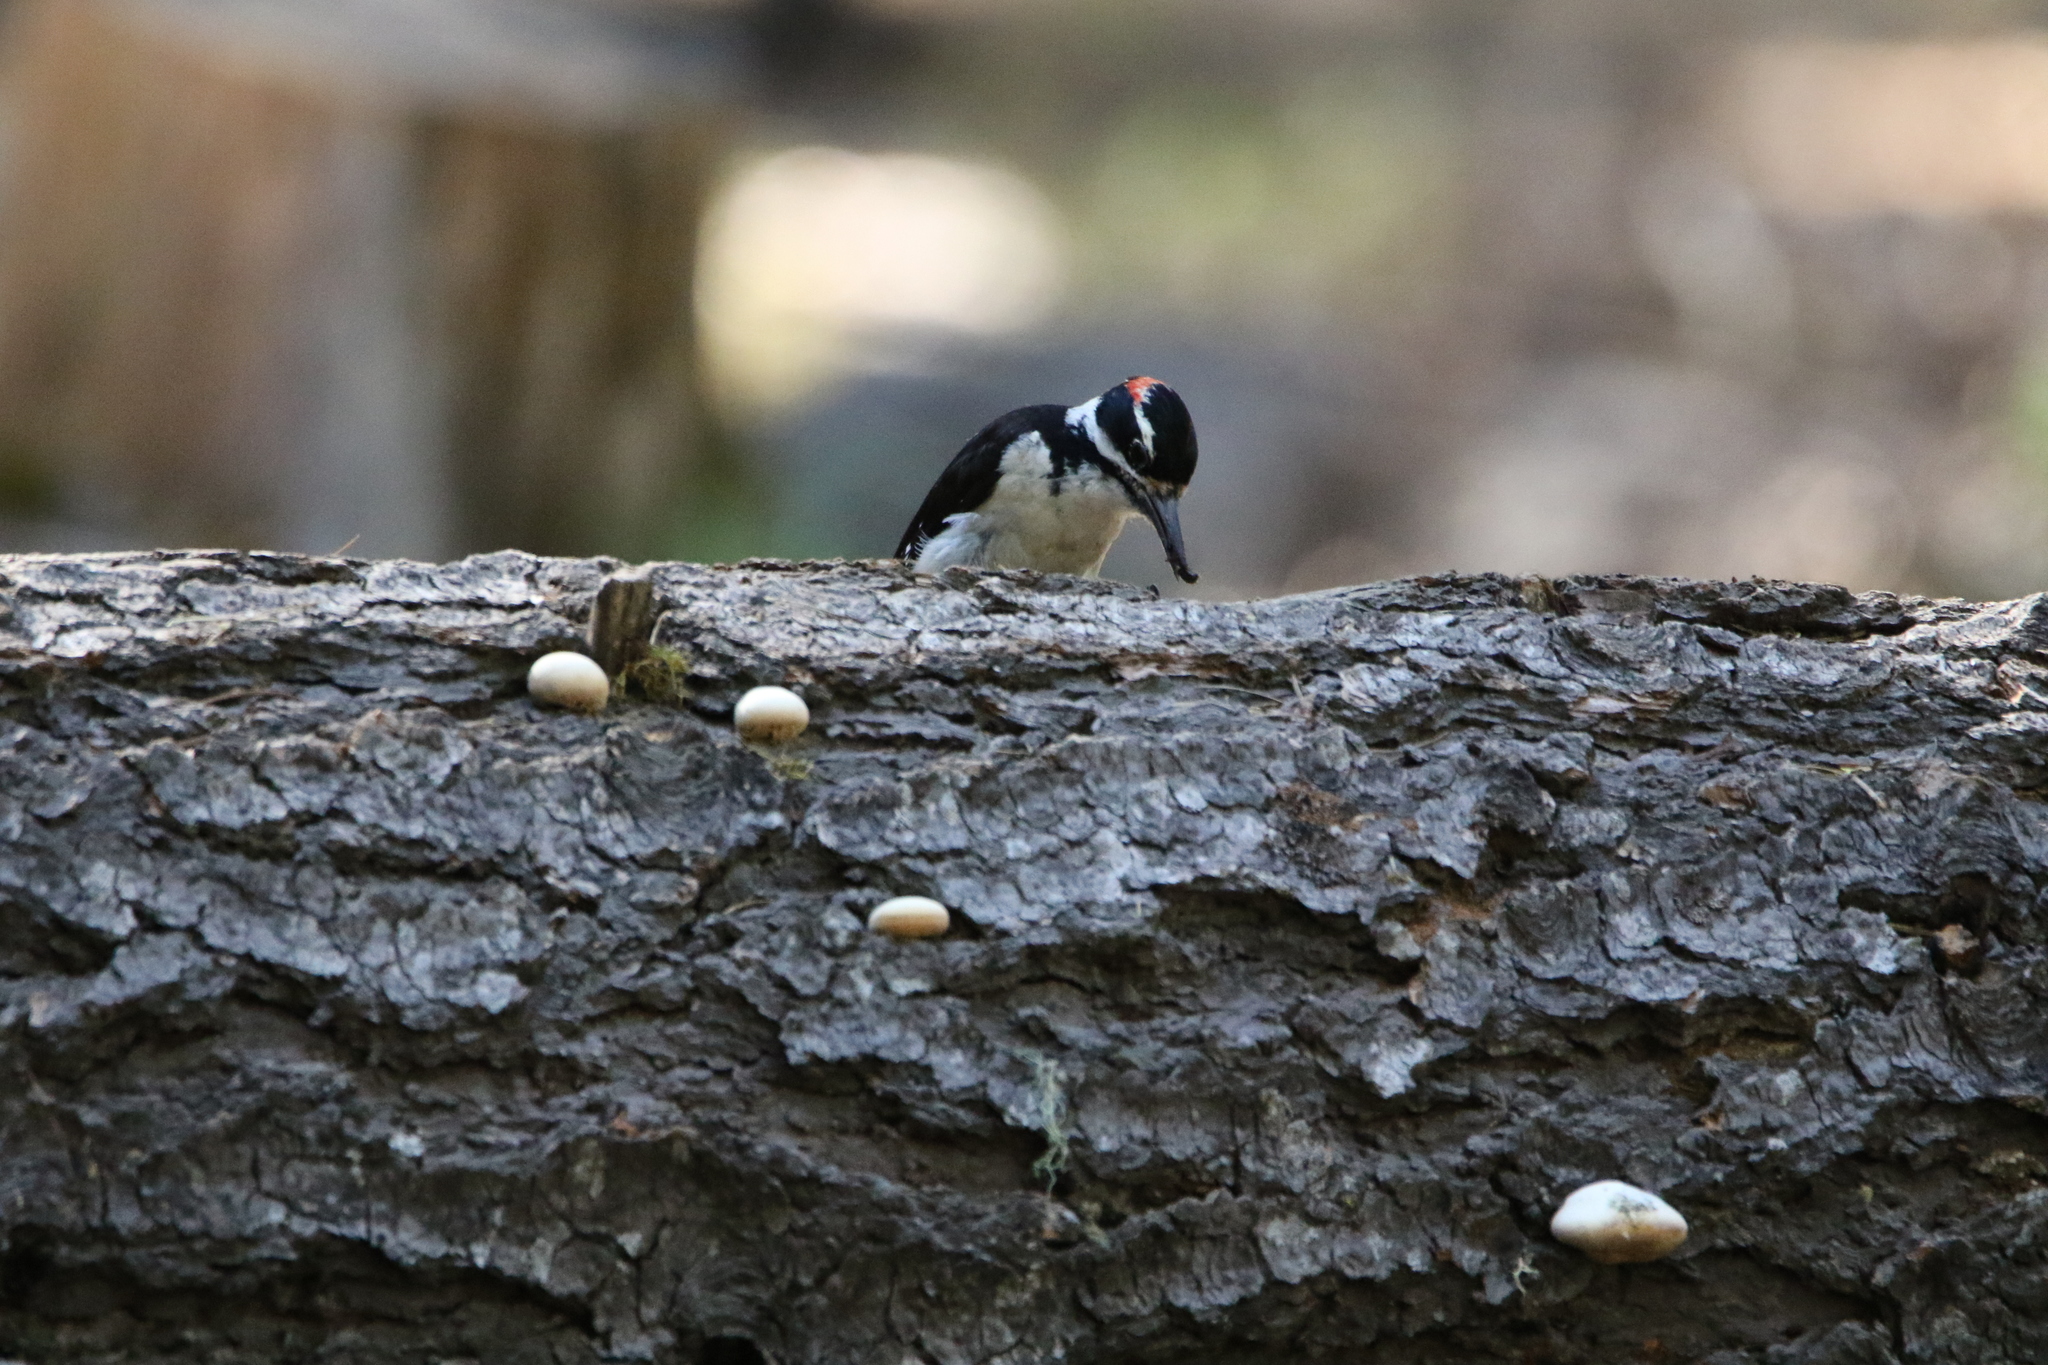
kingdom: Animalia
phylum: Chordata
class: Aves
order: Piciformes
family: Picidae
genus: Leuconotopicus
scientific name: Leuconotopicus villosus
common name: Hairy woodpecker
